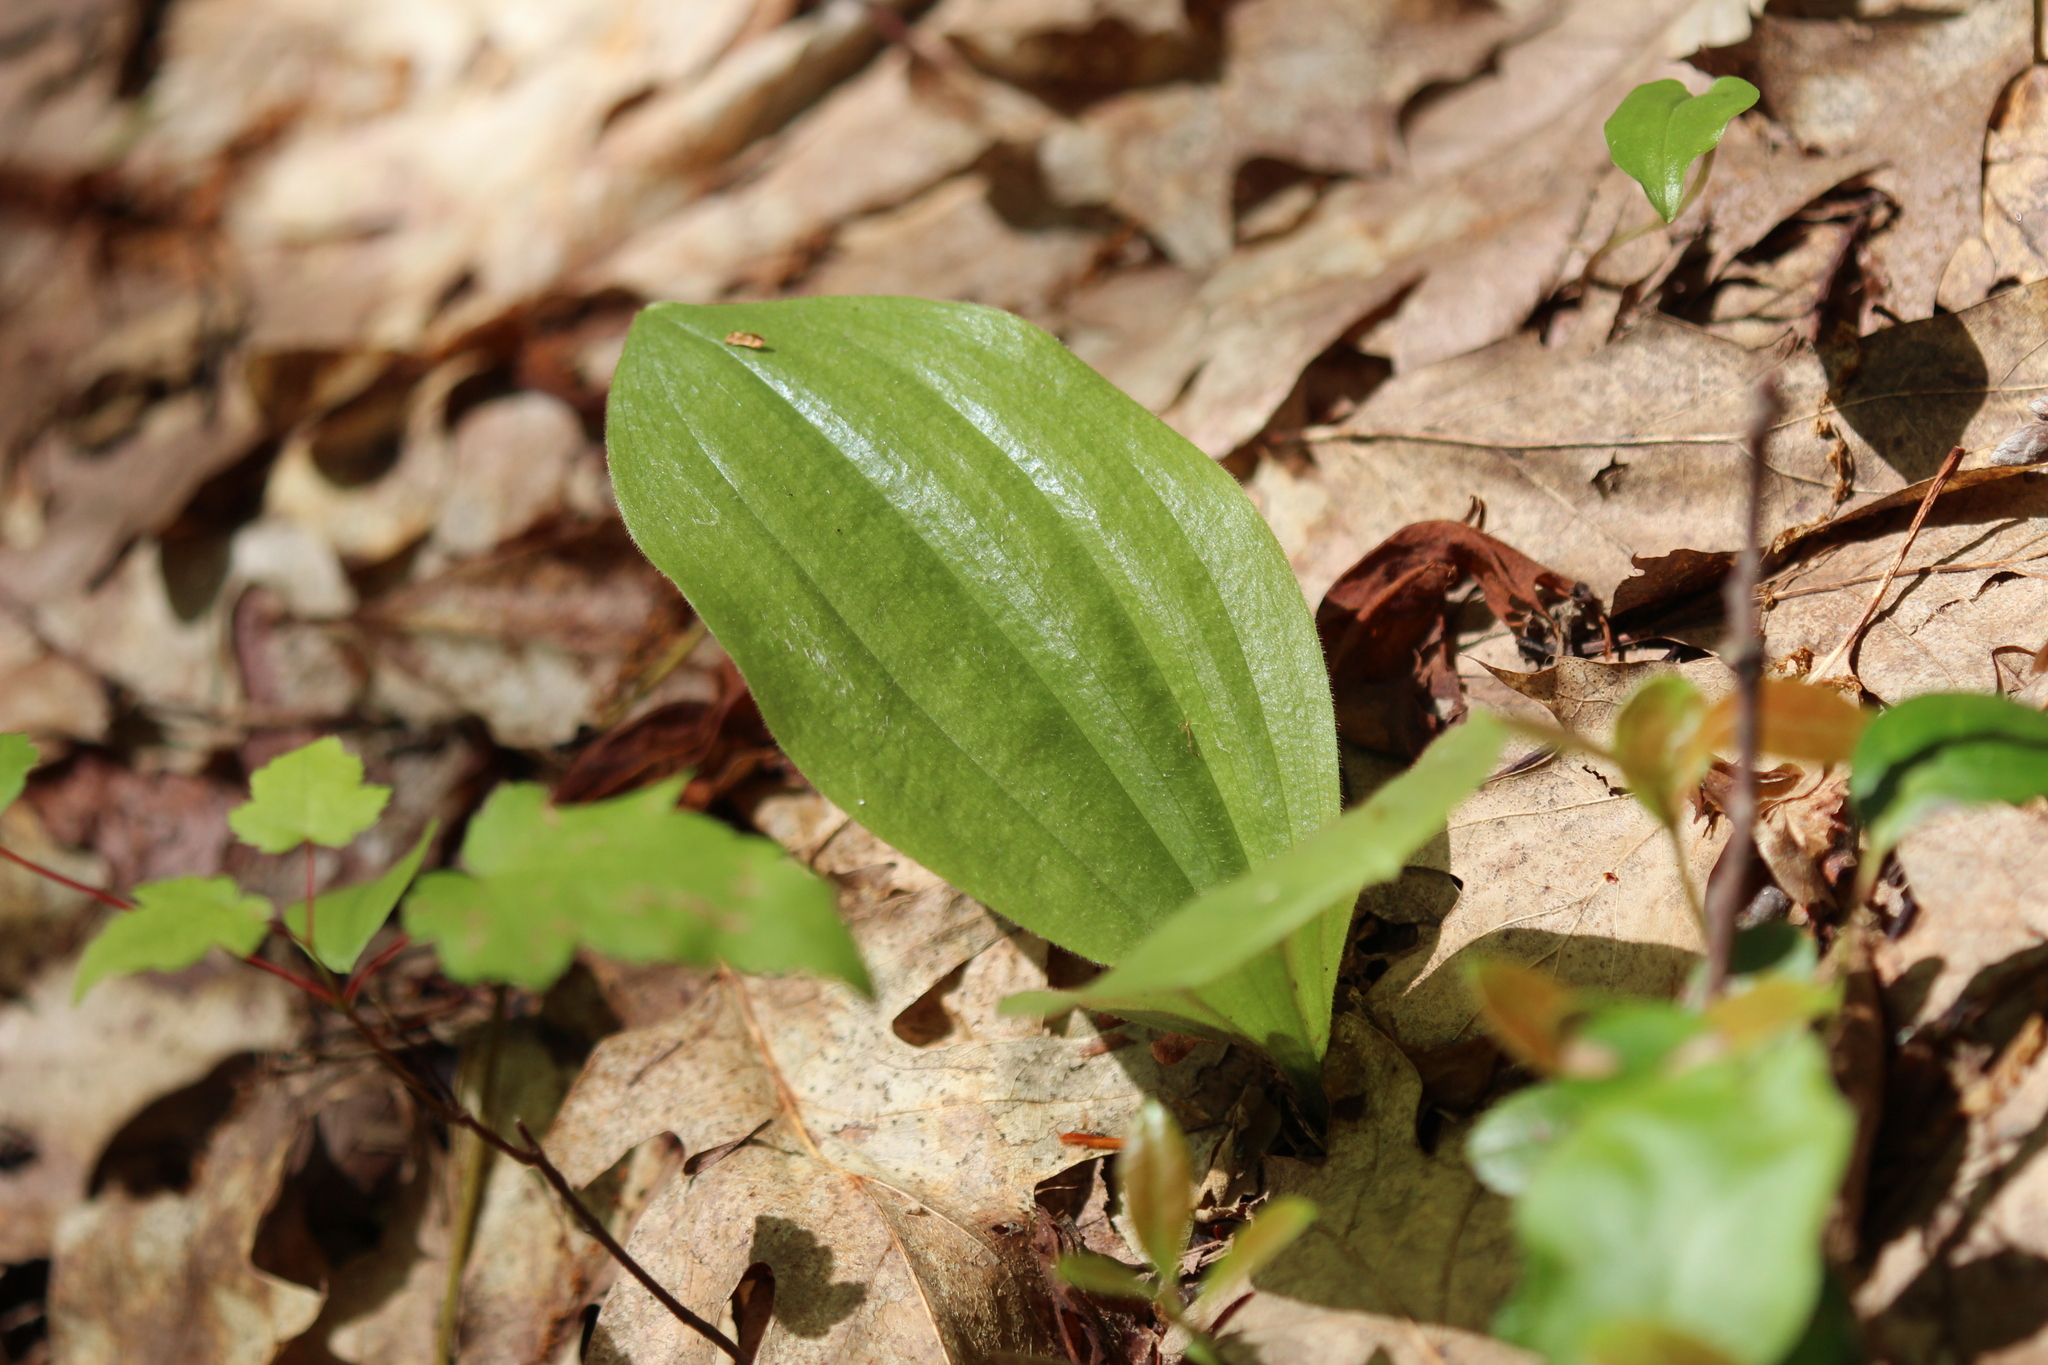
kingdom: Plantae
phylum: Tracheophyta
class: Liliopsida
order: Asparagales
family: Orchidaceae
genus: Cypripedium
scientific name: Cypripedium acaule
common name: Pink lady's-slipper
